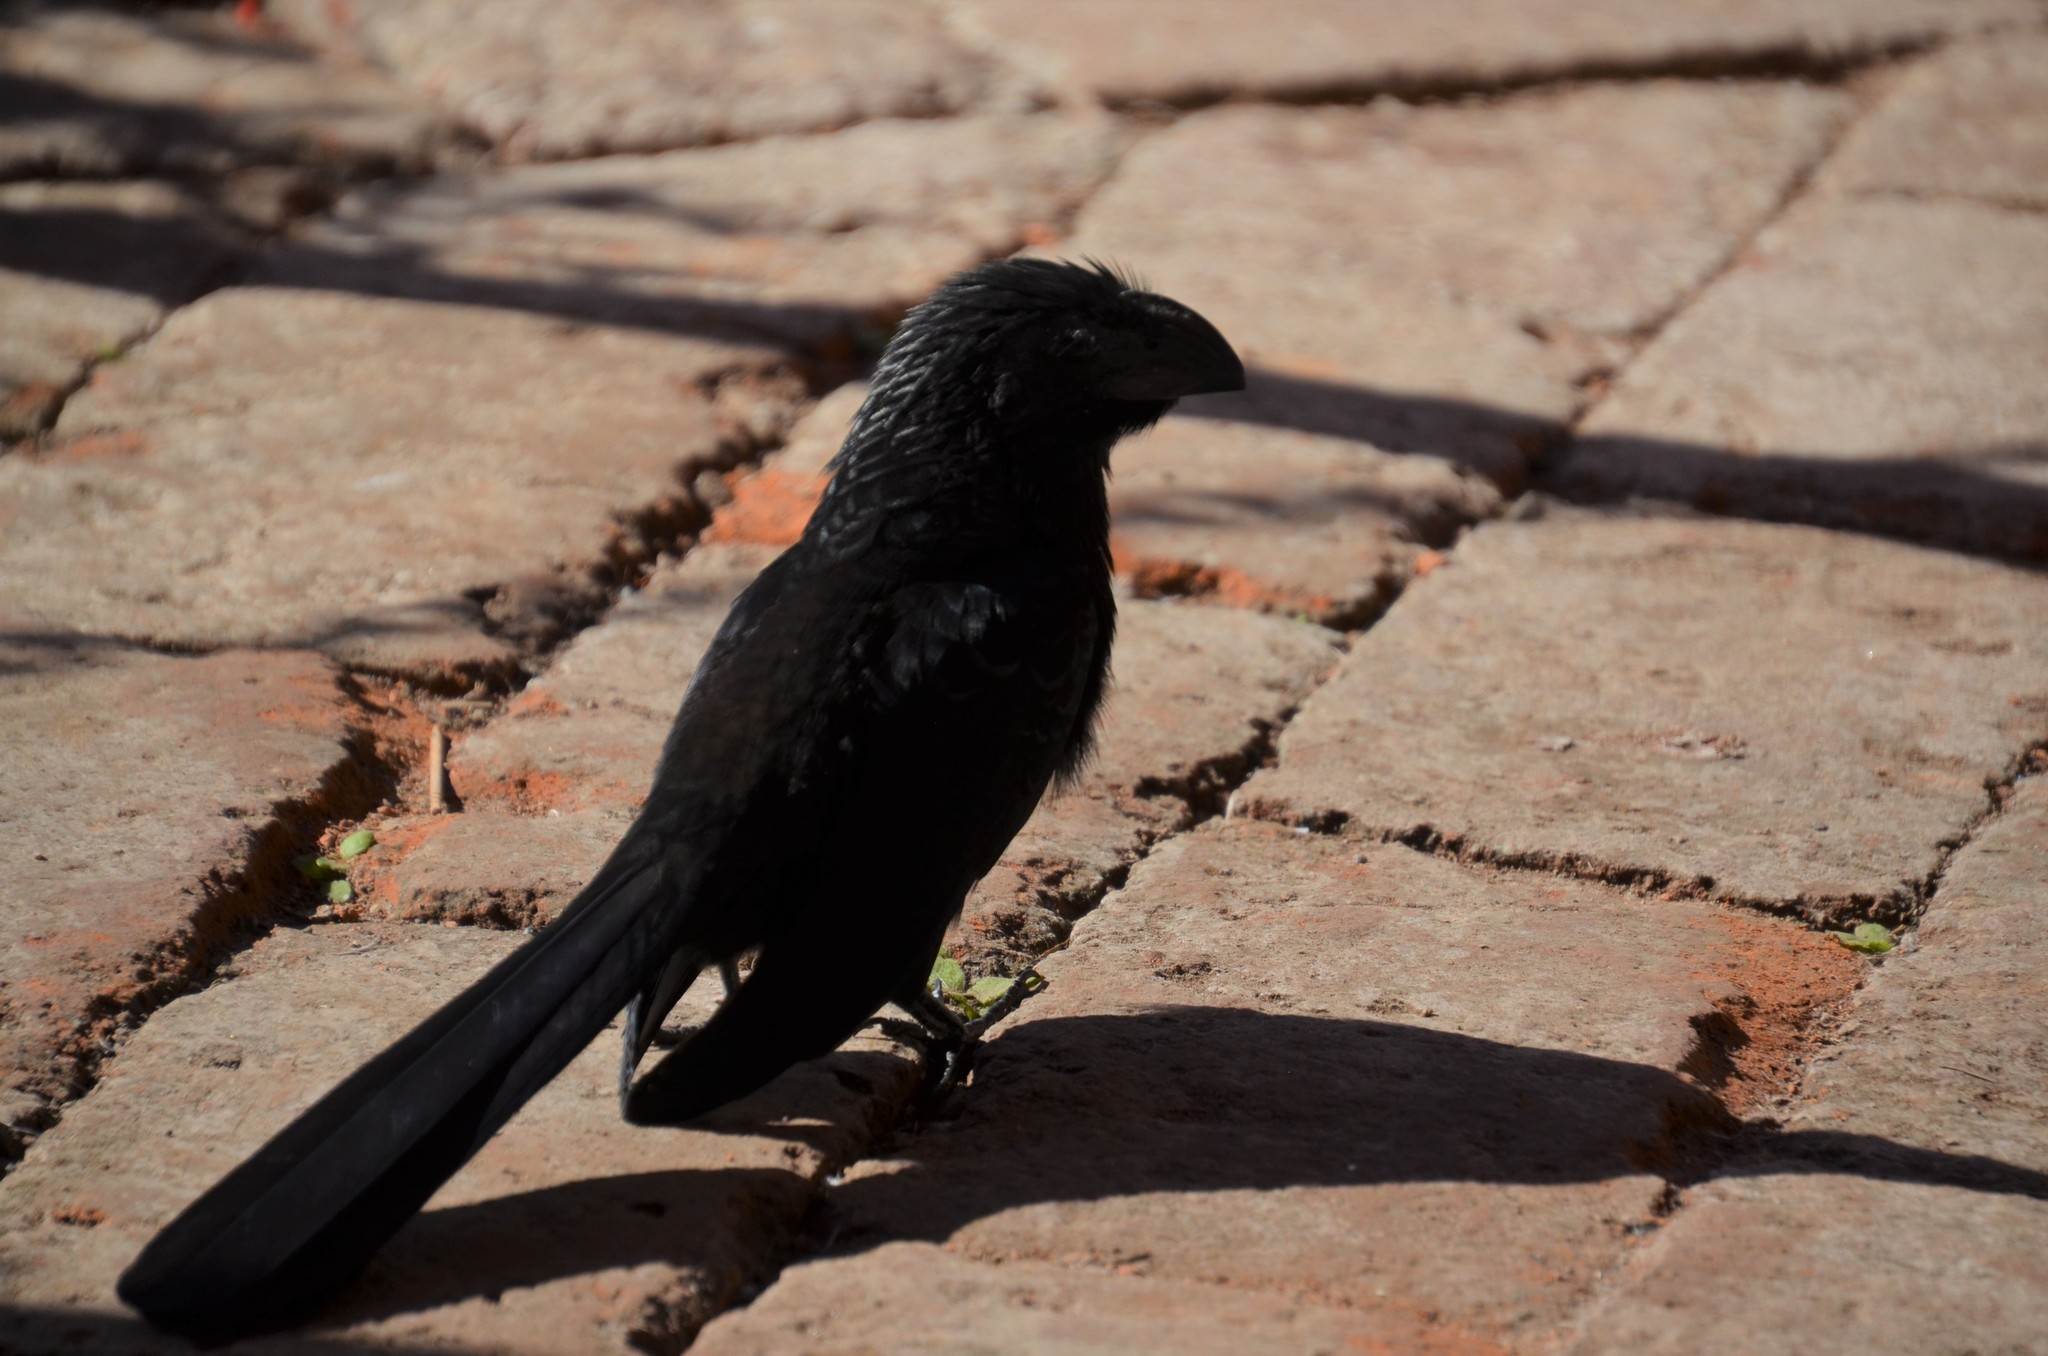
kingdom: Animalia
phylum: Chordata
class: Aves
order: Cuculiformes
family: Cuculidae
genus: Crotophaga
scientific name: Crotophaga sulcirostris
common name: Groove-billed ani
